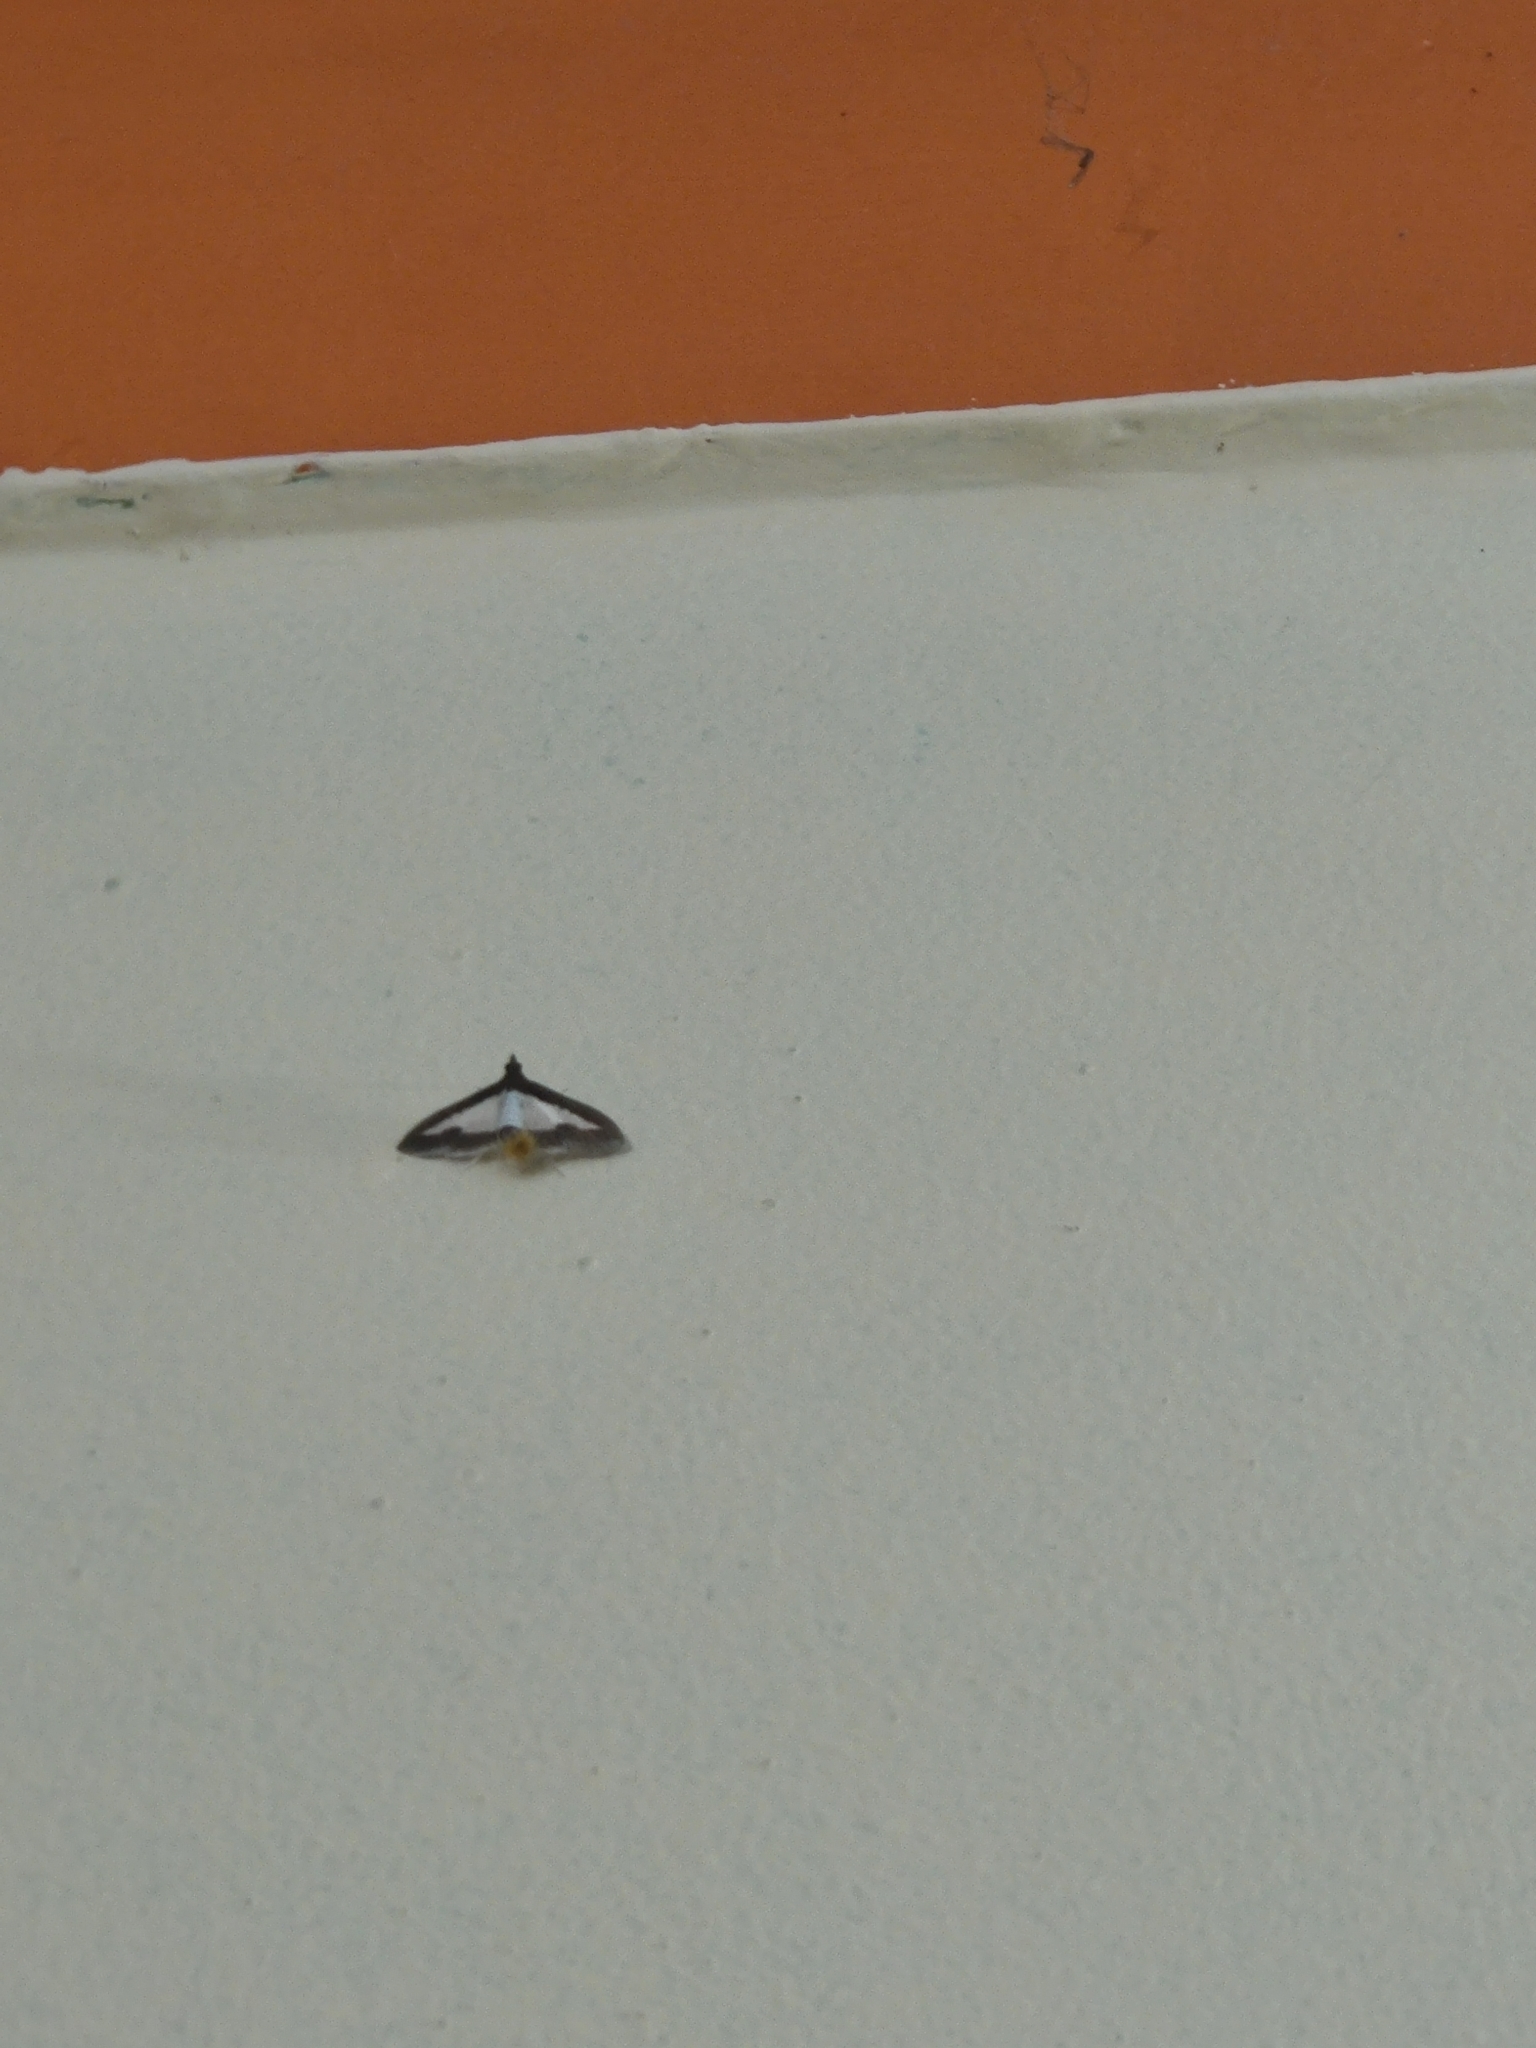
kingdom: Animalia
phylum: Arthropoda
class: Insecta
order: Lepidoptera
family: Crambidae
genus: Diaphania
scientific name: Diaphania indica
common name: Cucumber moth
